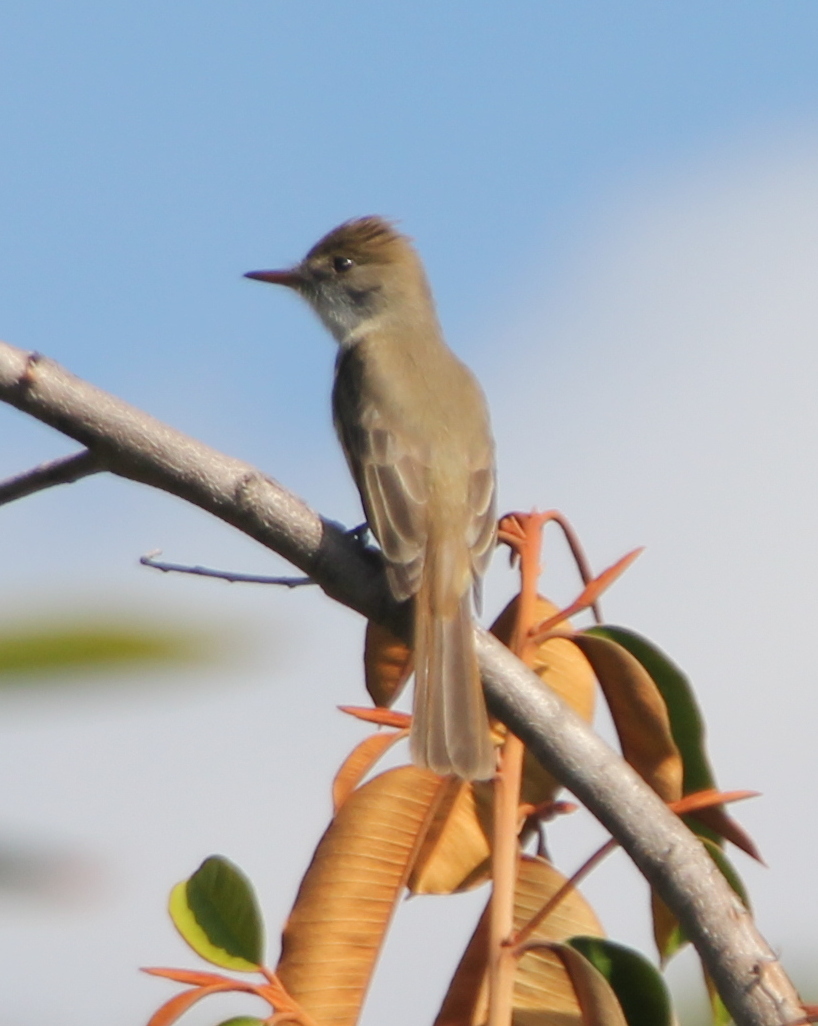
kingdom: Animalia
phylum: Chordata
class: Aves
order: Passeriformes
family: Tyrannidae
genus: Myiarchus
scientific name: Myiarchus tuberculifer
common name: Dusky-capped flycatcher
